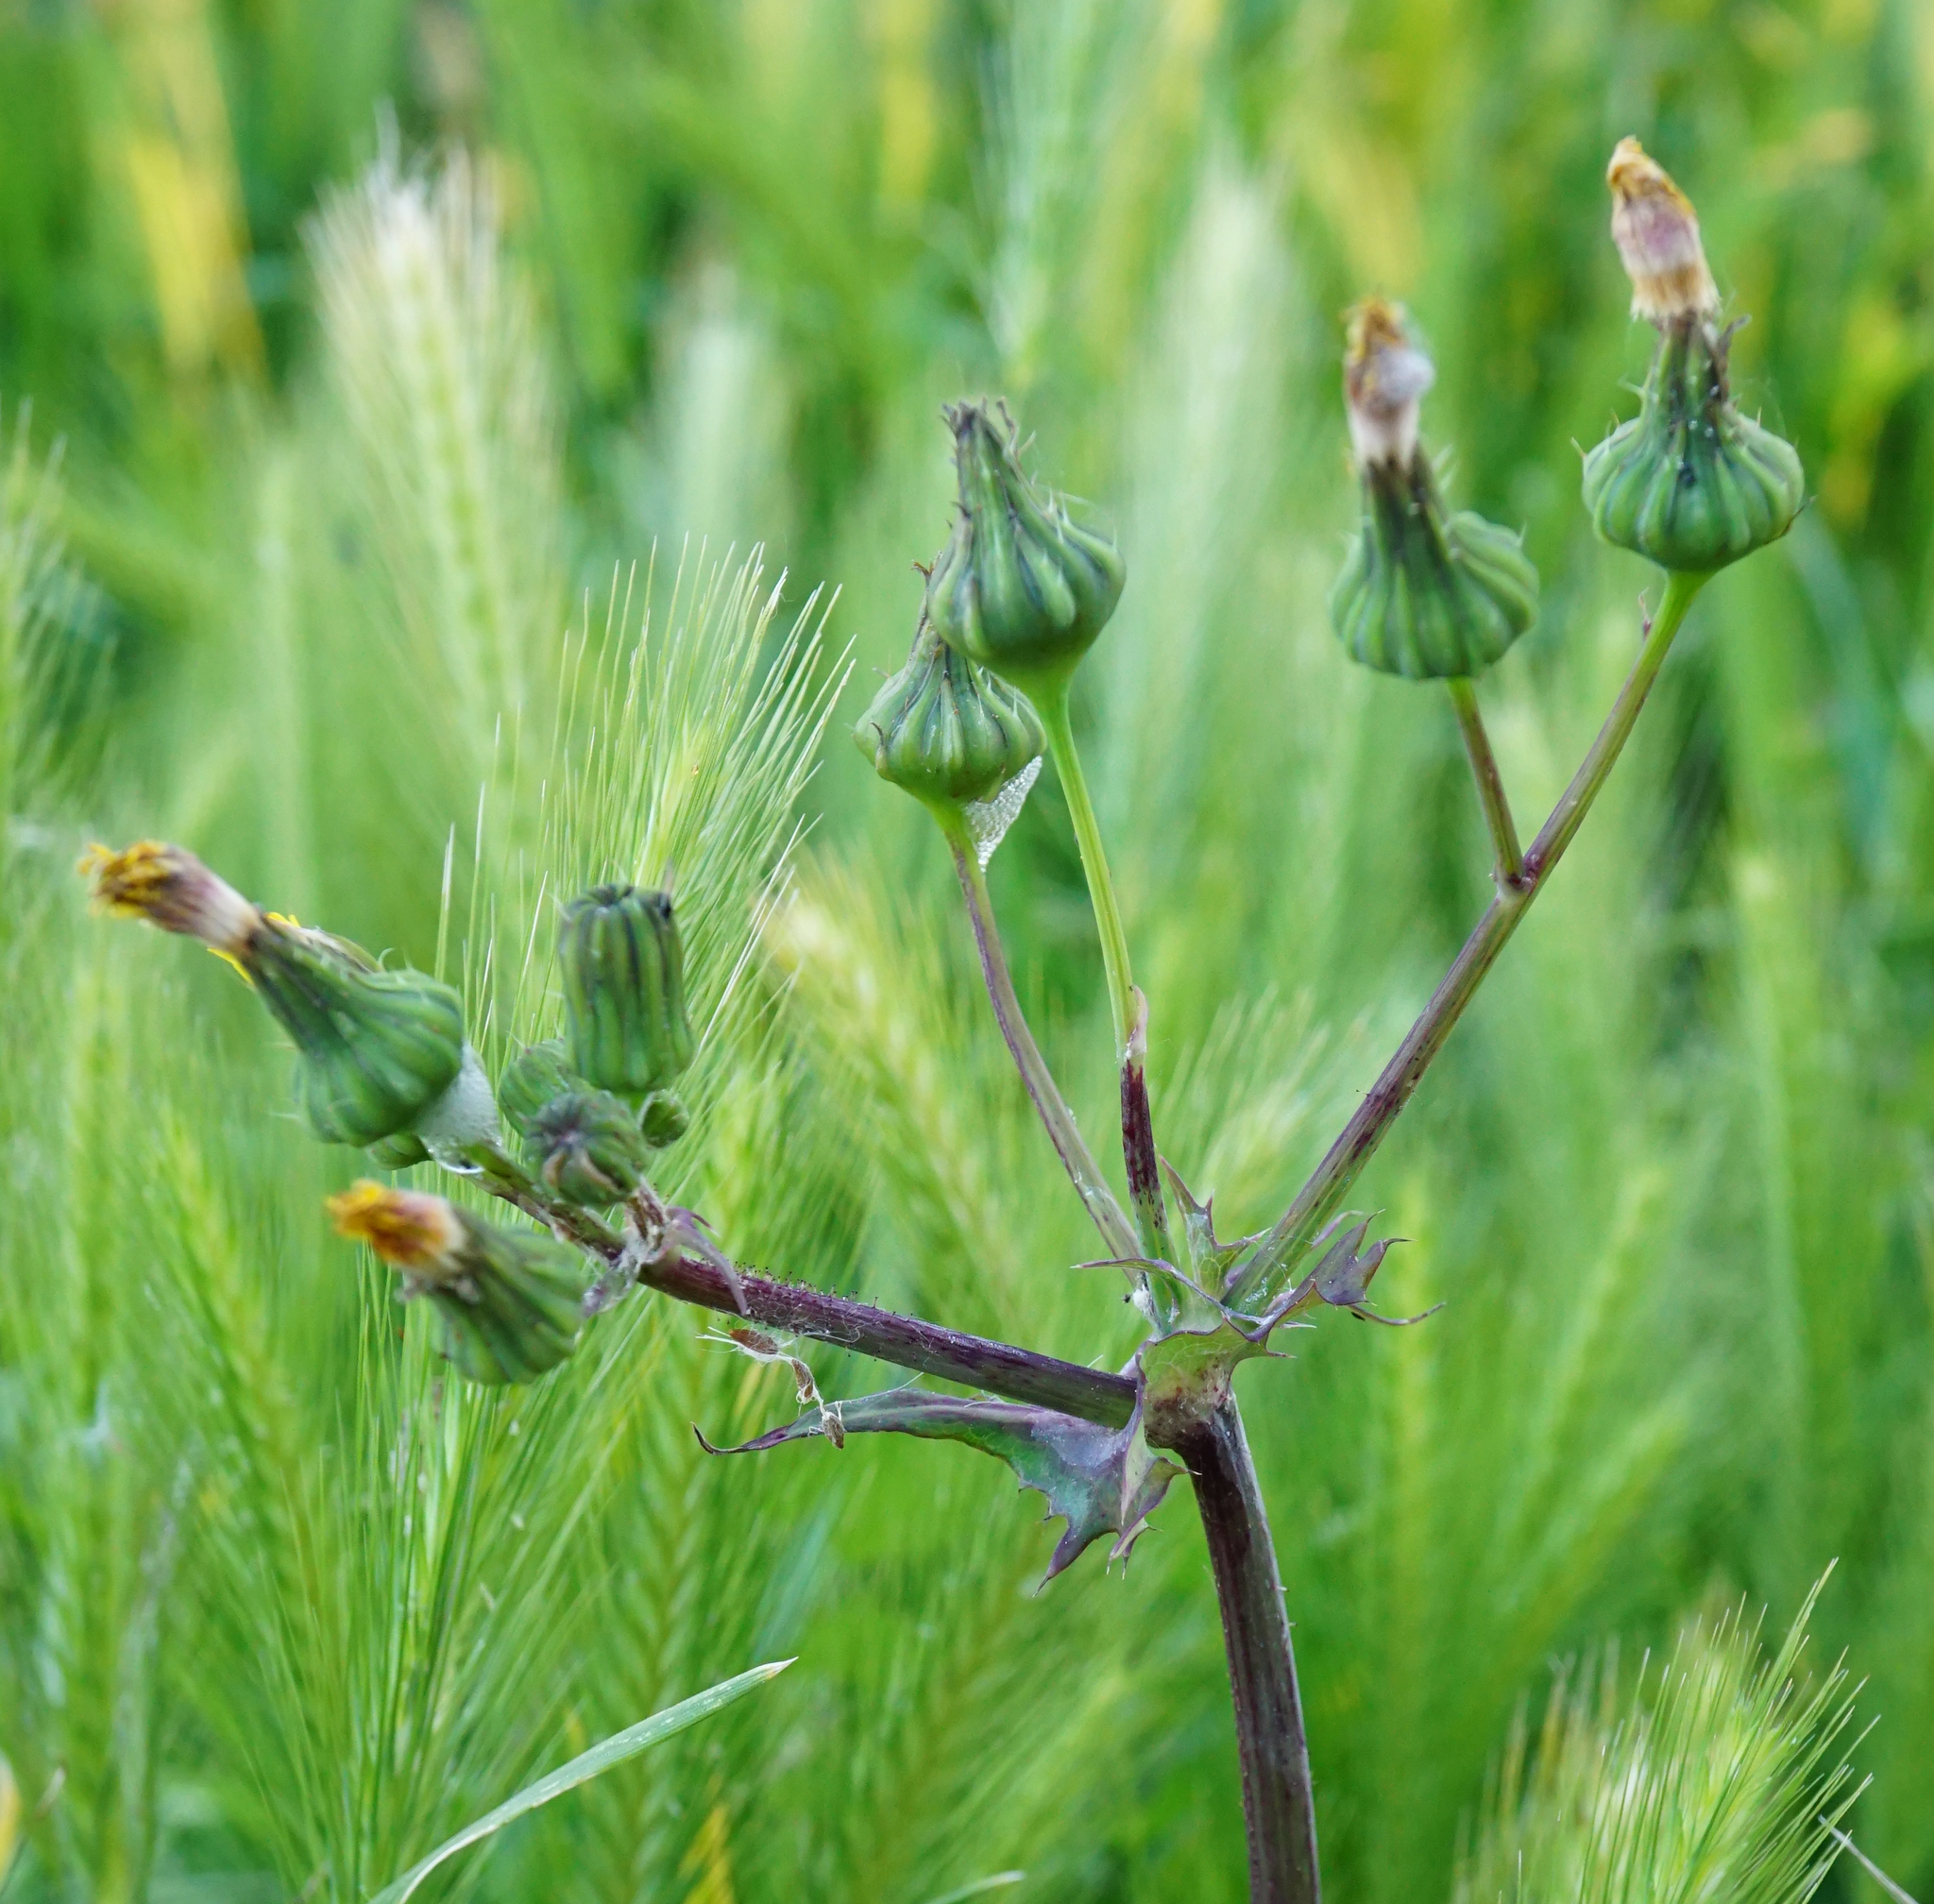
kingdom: Plantae
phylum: Tracheophyta
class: Magnoliopsida
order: Asterales
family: Asteraceae
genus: Sonchus
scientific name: Sonchus oleraceus
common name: Common sowthistle
